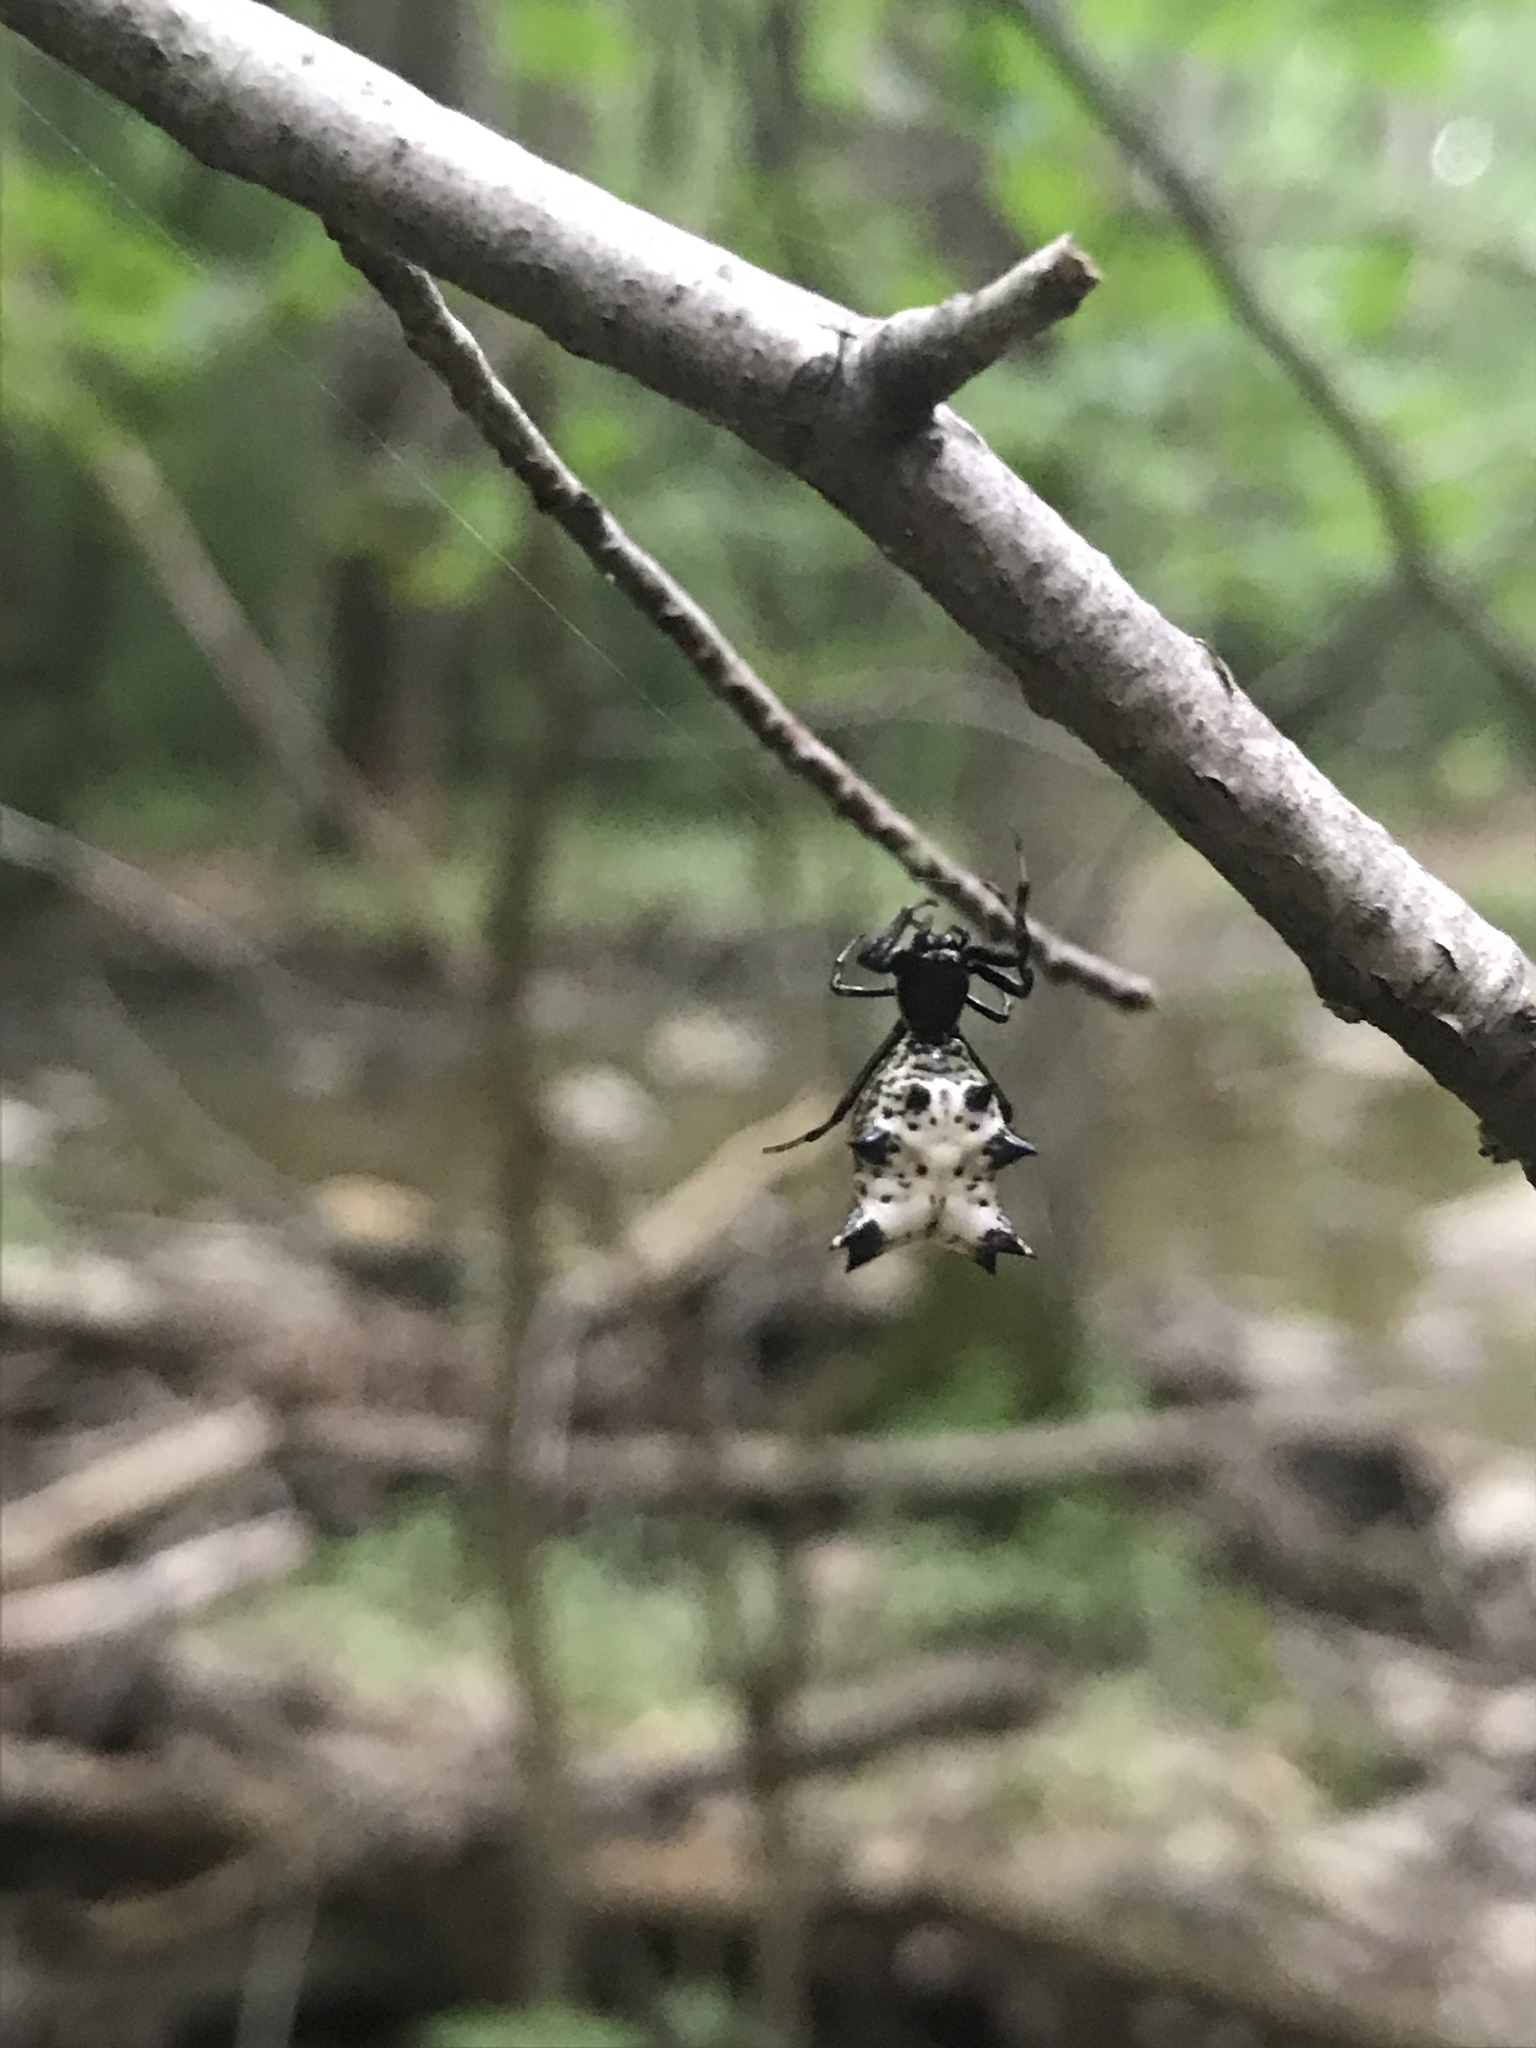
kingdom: Animalia
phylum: Arthropoda
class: Arachnida
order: Araneae
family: Araneidae
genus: Micrathena
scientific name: Micrathena gracilis
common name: Orb weavers
